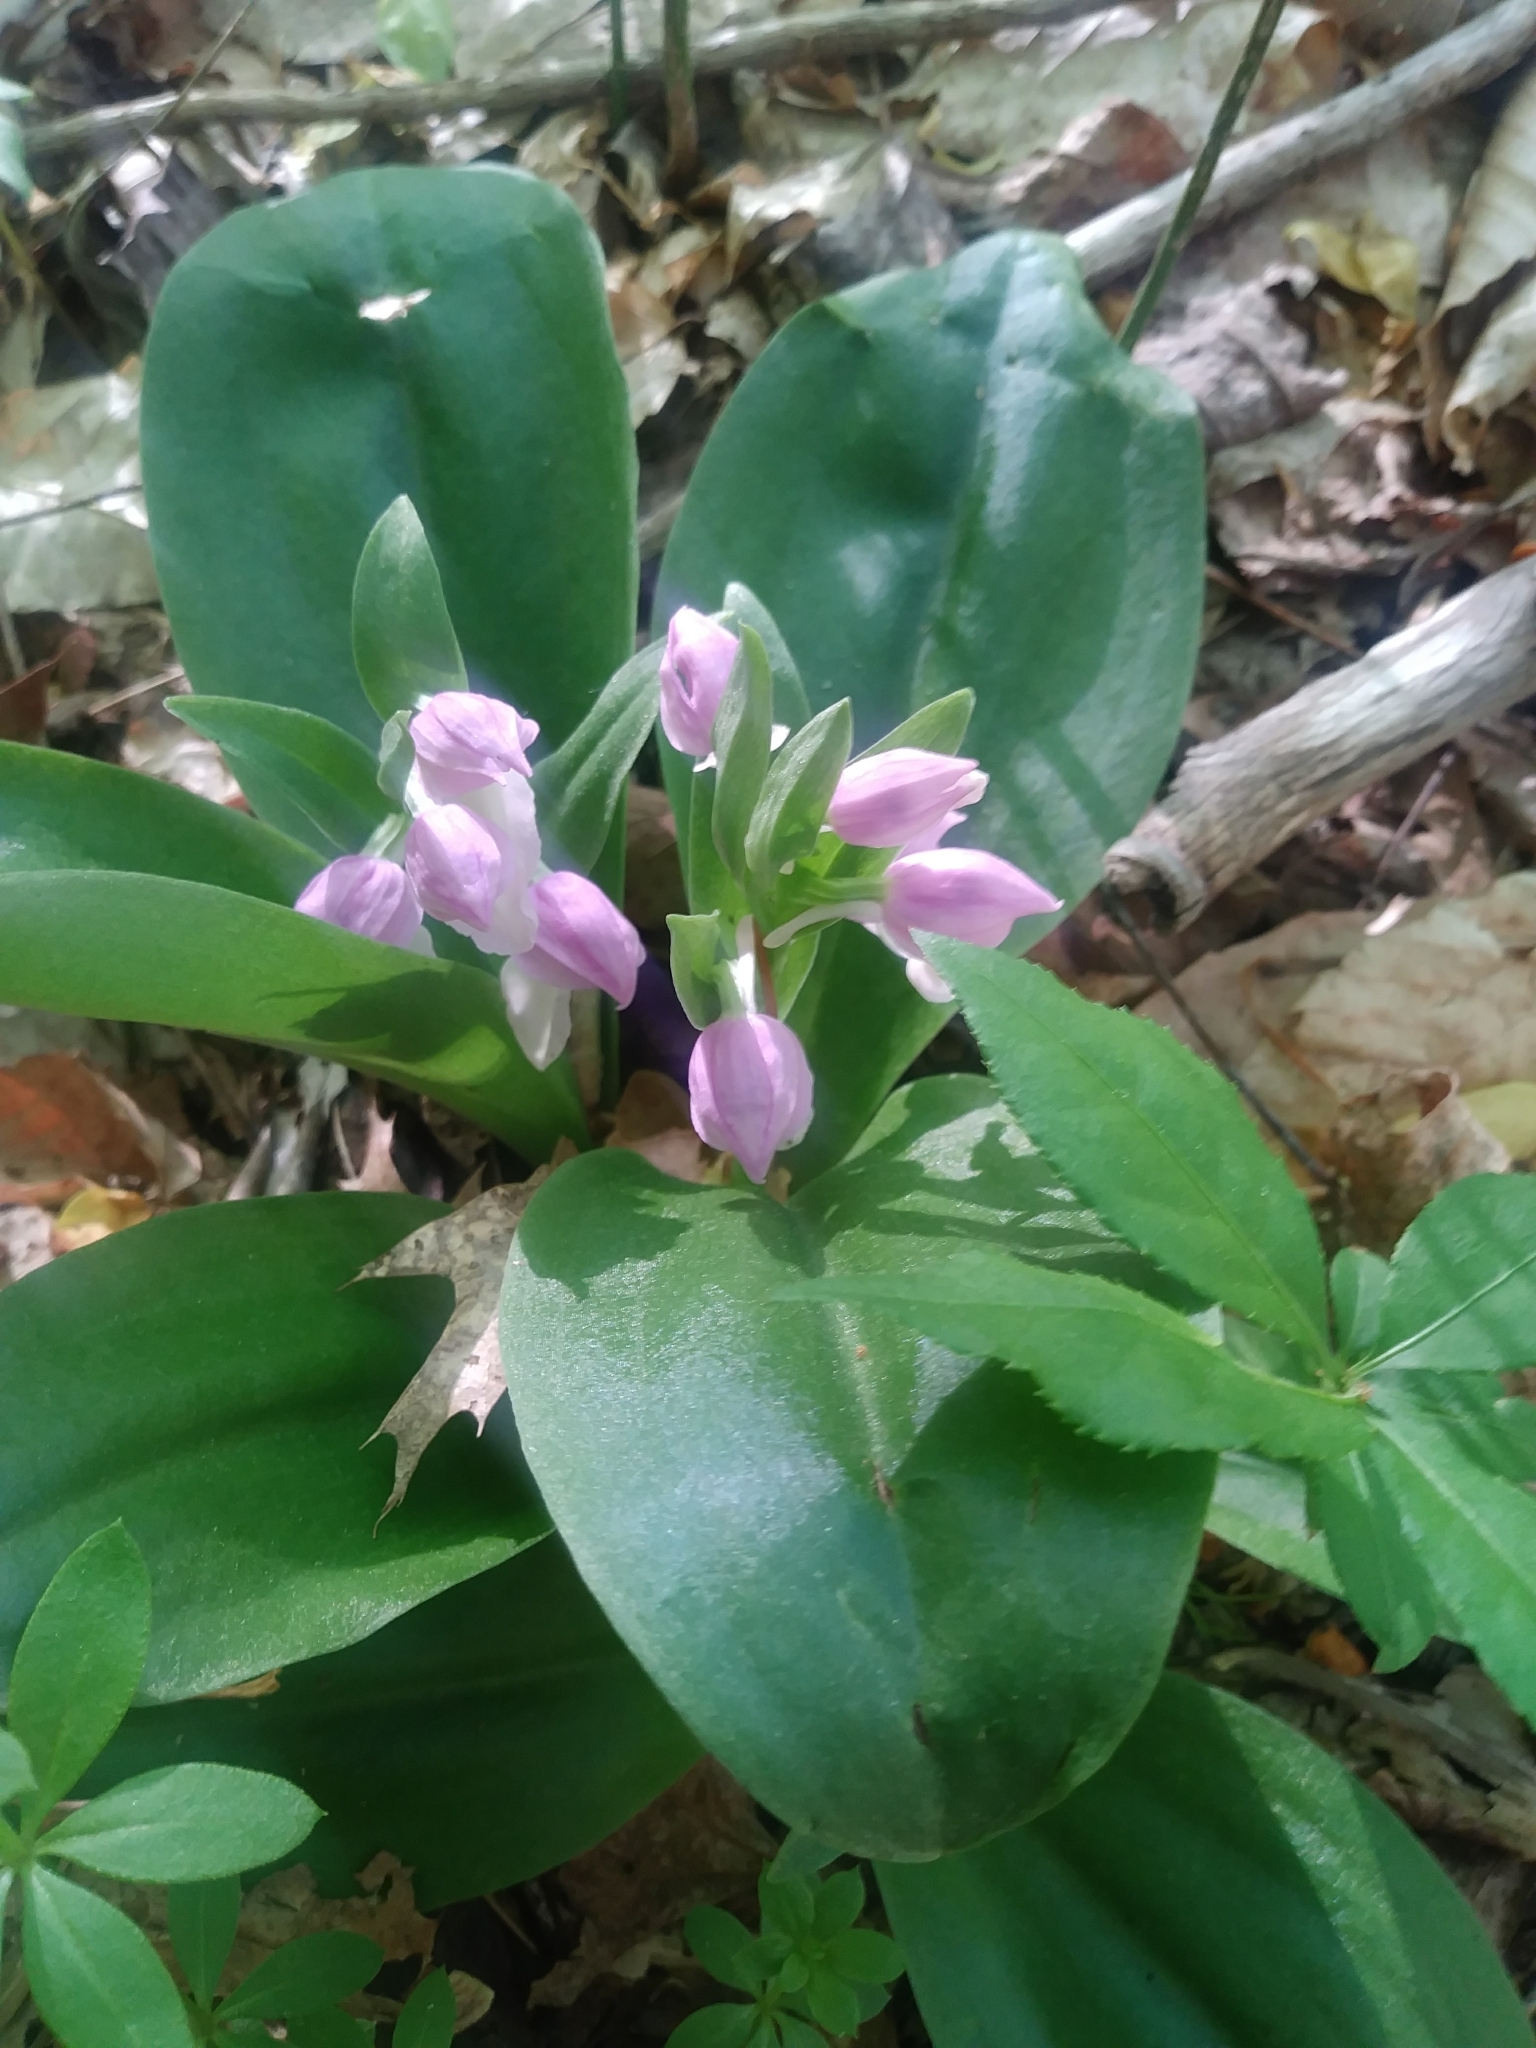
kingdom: Plantae
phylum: Tracheophyta
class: Liliopsida
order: Asparagales
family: Orchidaceae
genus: Galearis
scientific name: Galearis spectabilis
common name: Purple-hooded orchis
